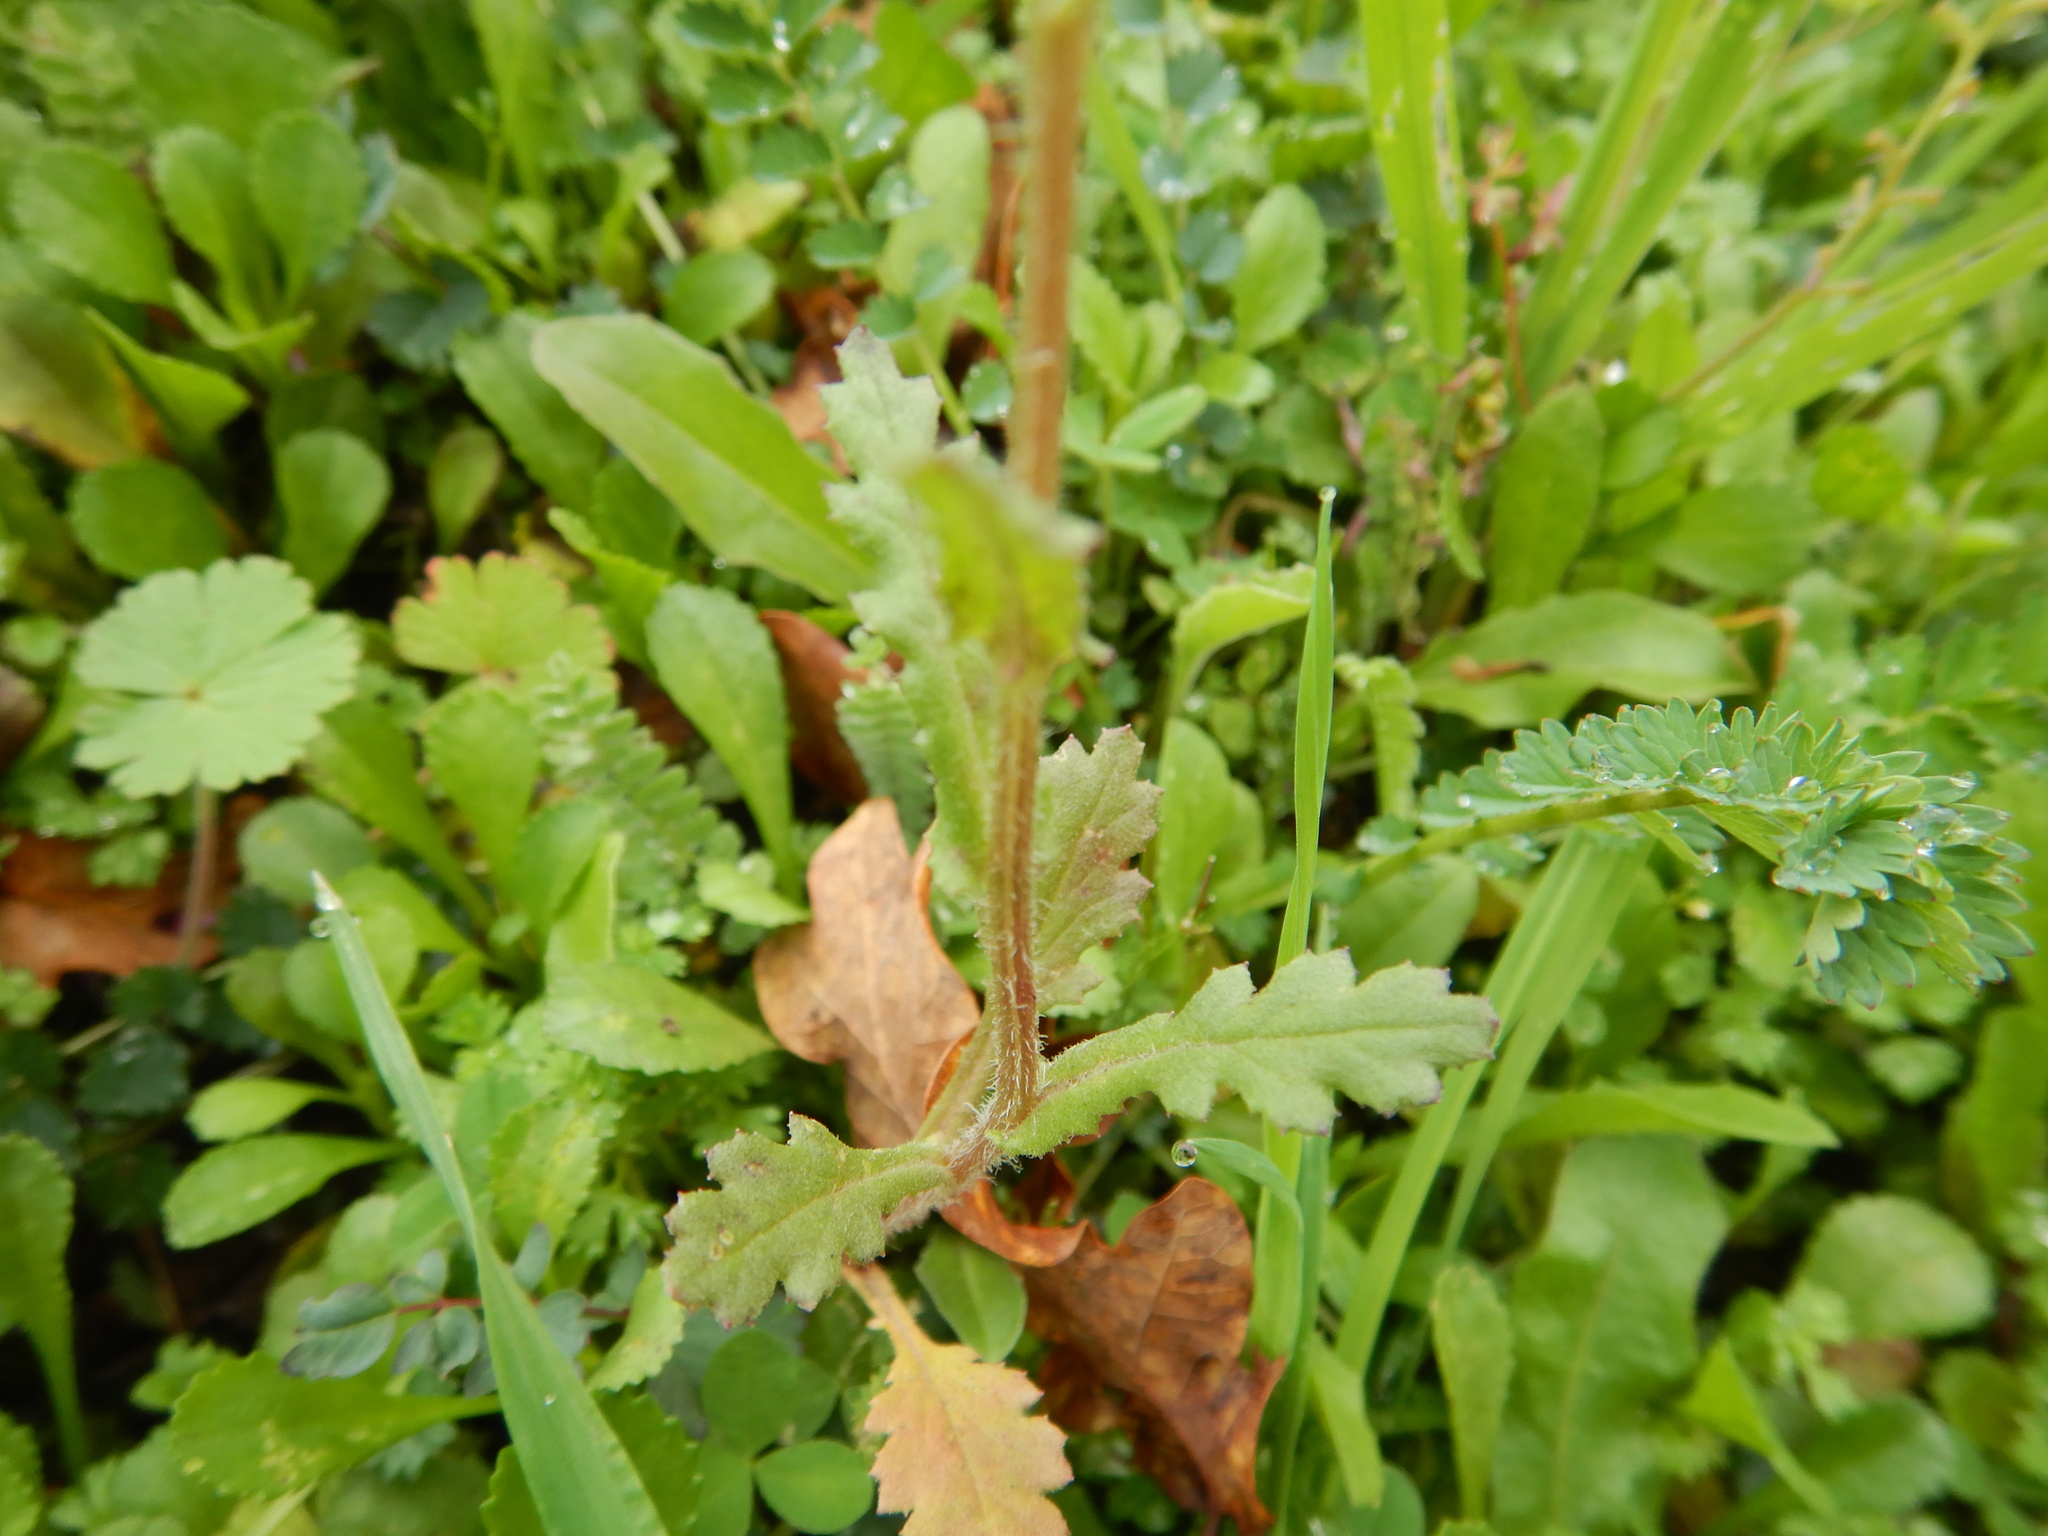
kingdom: Plantae
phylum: Tracheophyta
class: Magnoliopsida
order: Asterales
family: Asteraceae
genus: Senecio
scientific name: Senecio lividus
